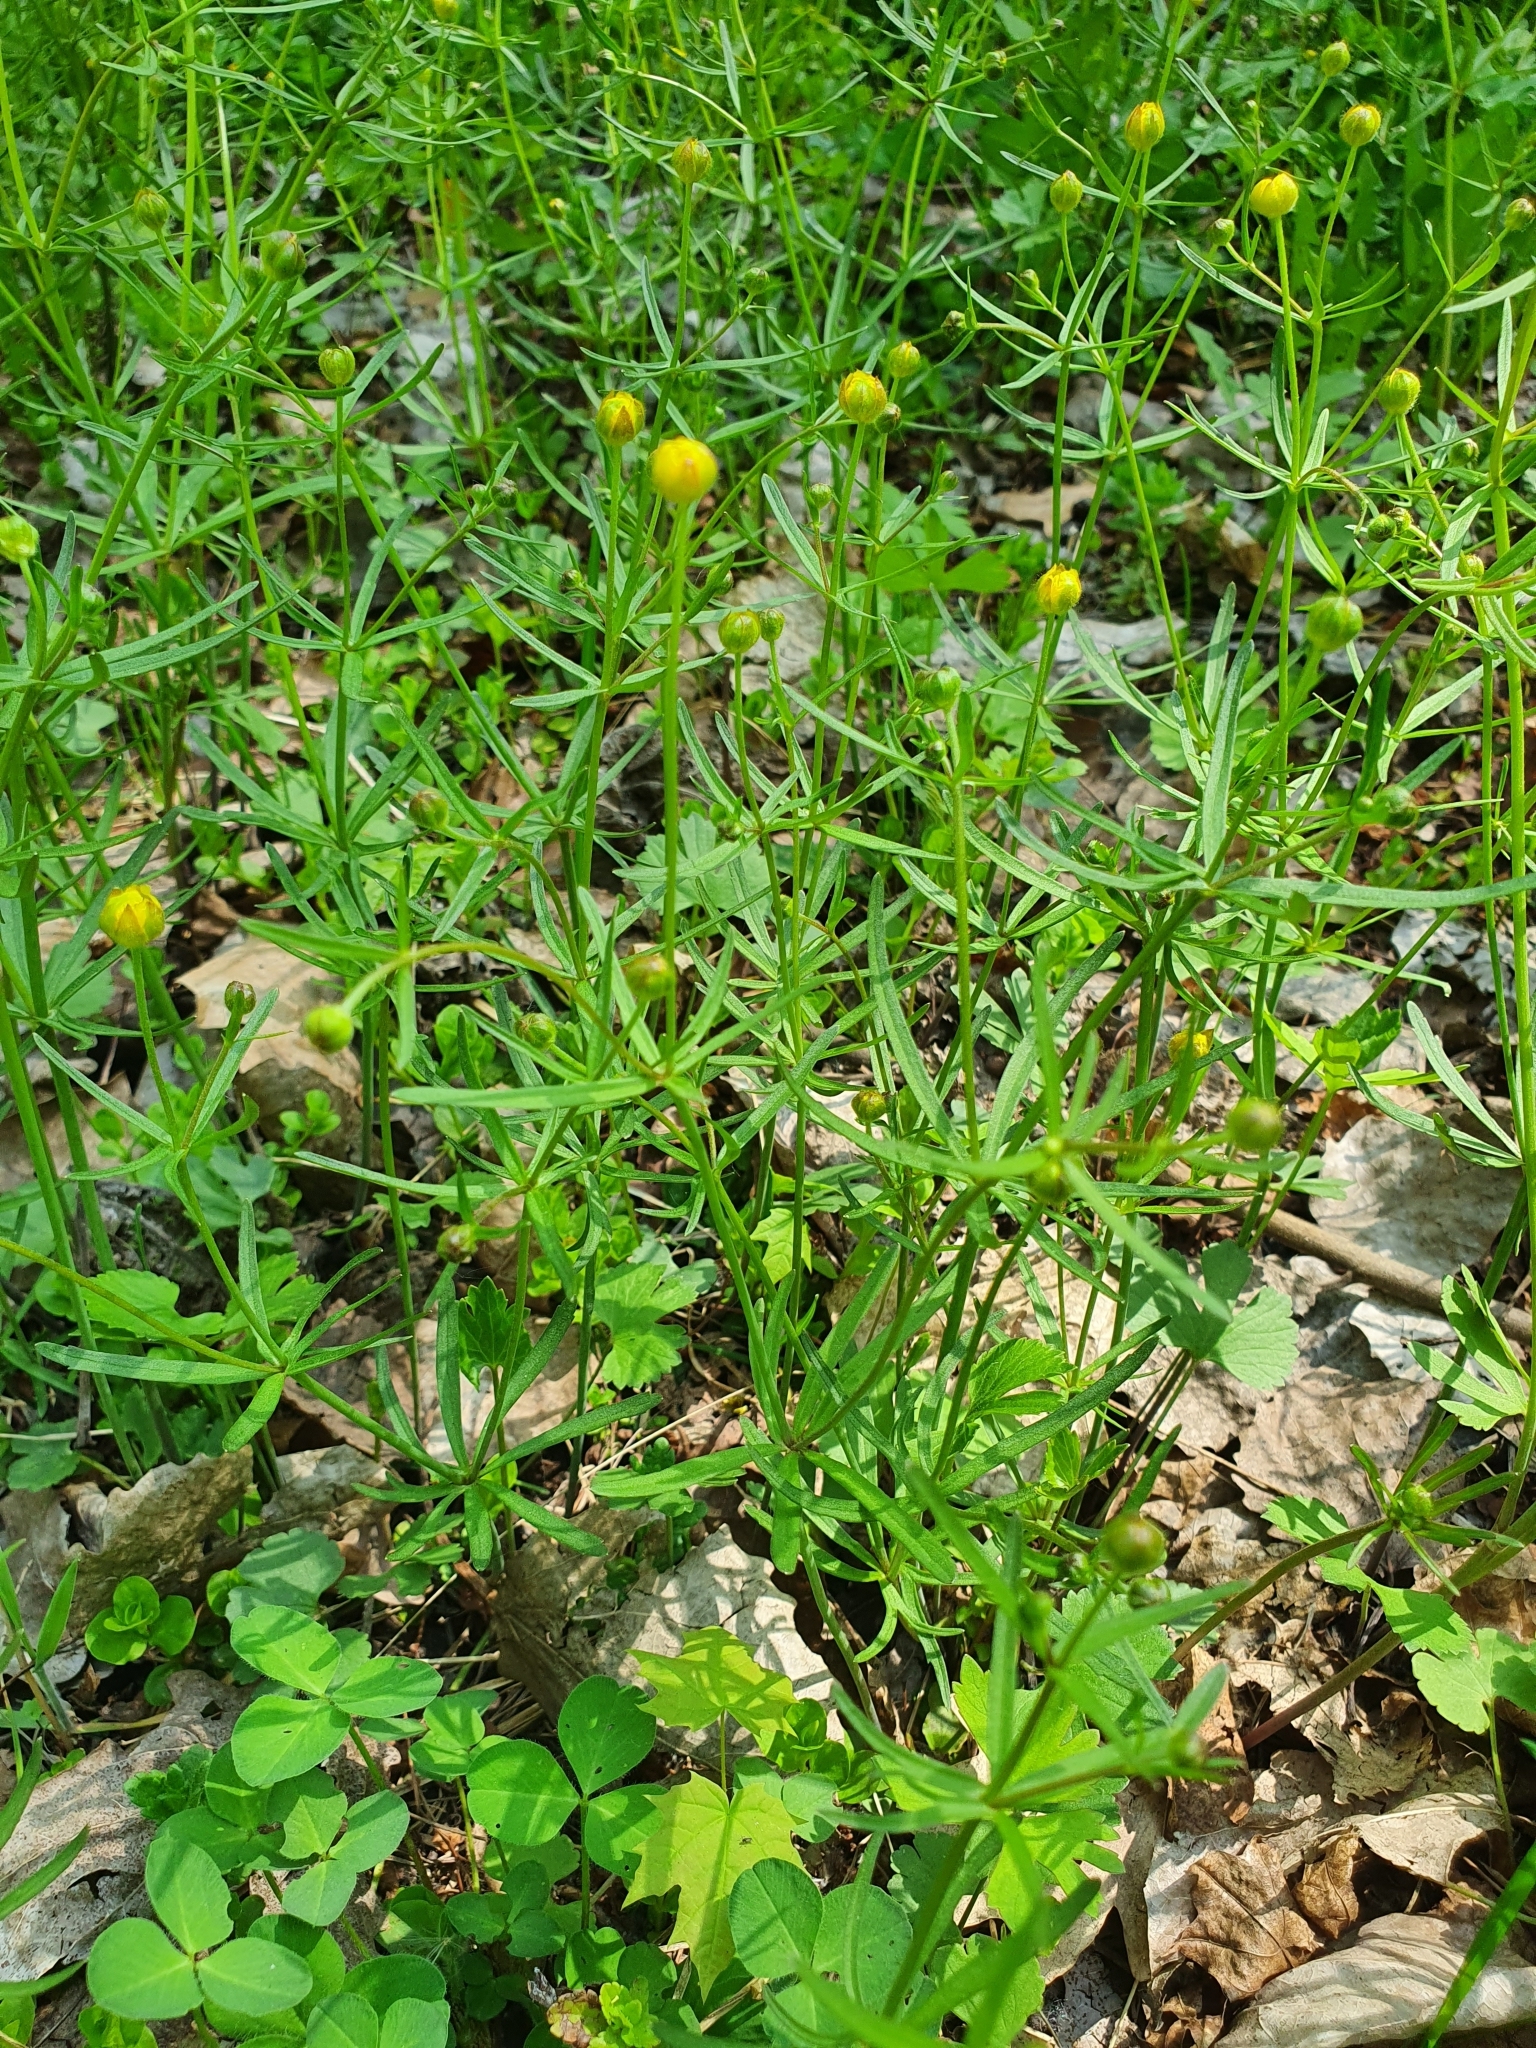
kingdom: Plantae
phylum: Tracheophyta
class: Magnoliopsida
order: Ranunculales
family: Ranunculaceae
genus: Ranunculus
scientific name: Ranunculus auricomus
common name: Goldilocks buttercup
